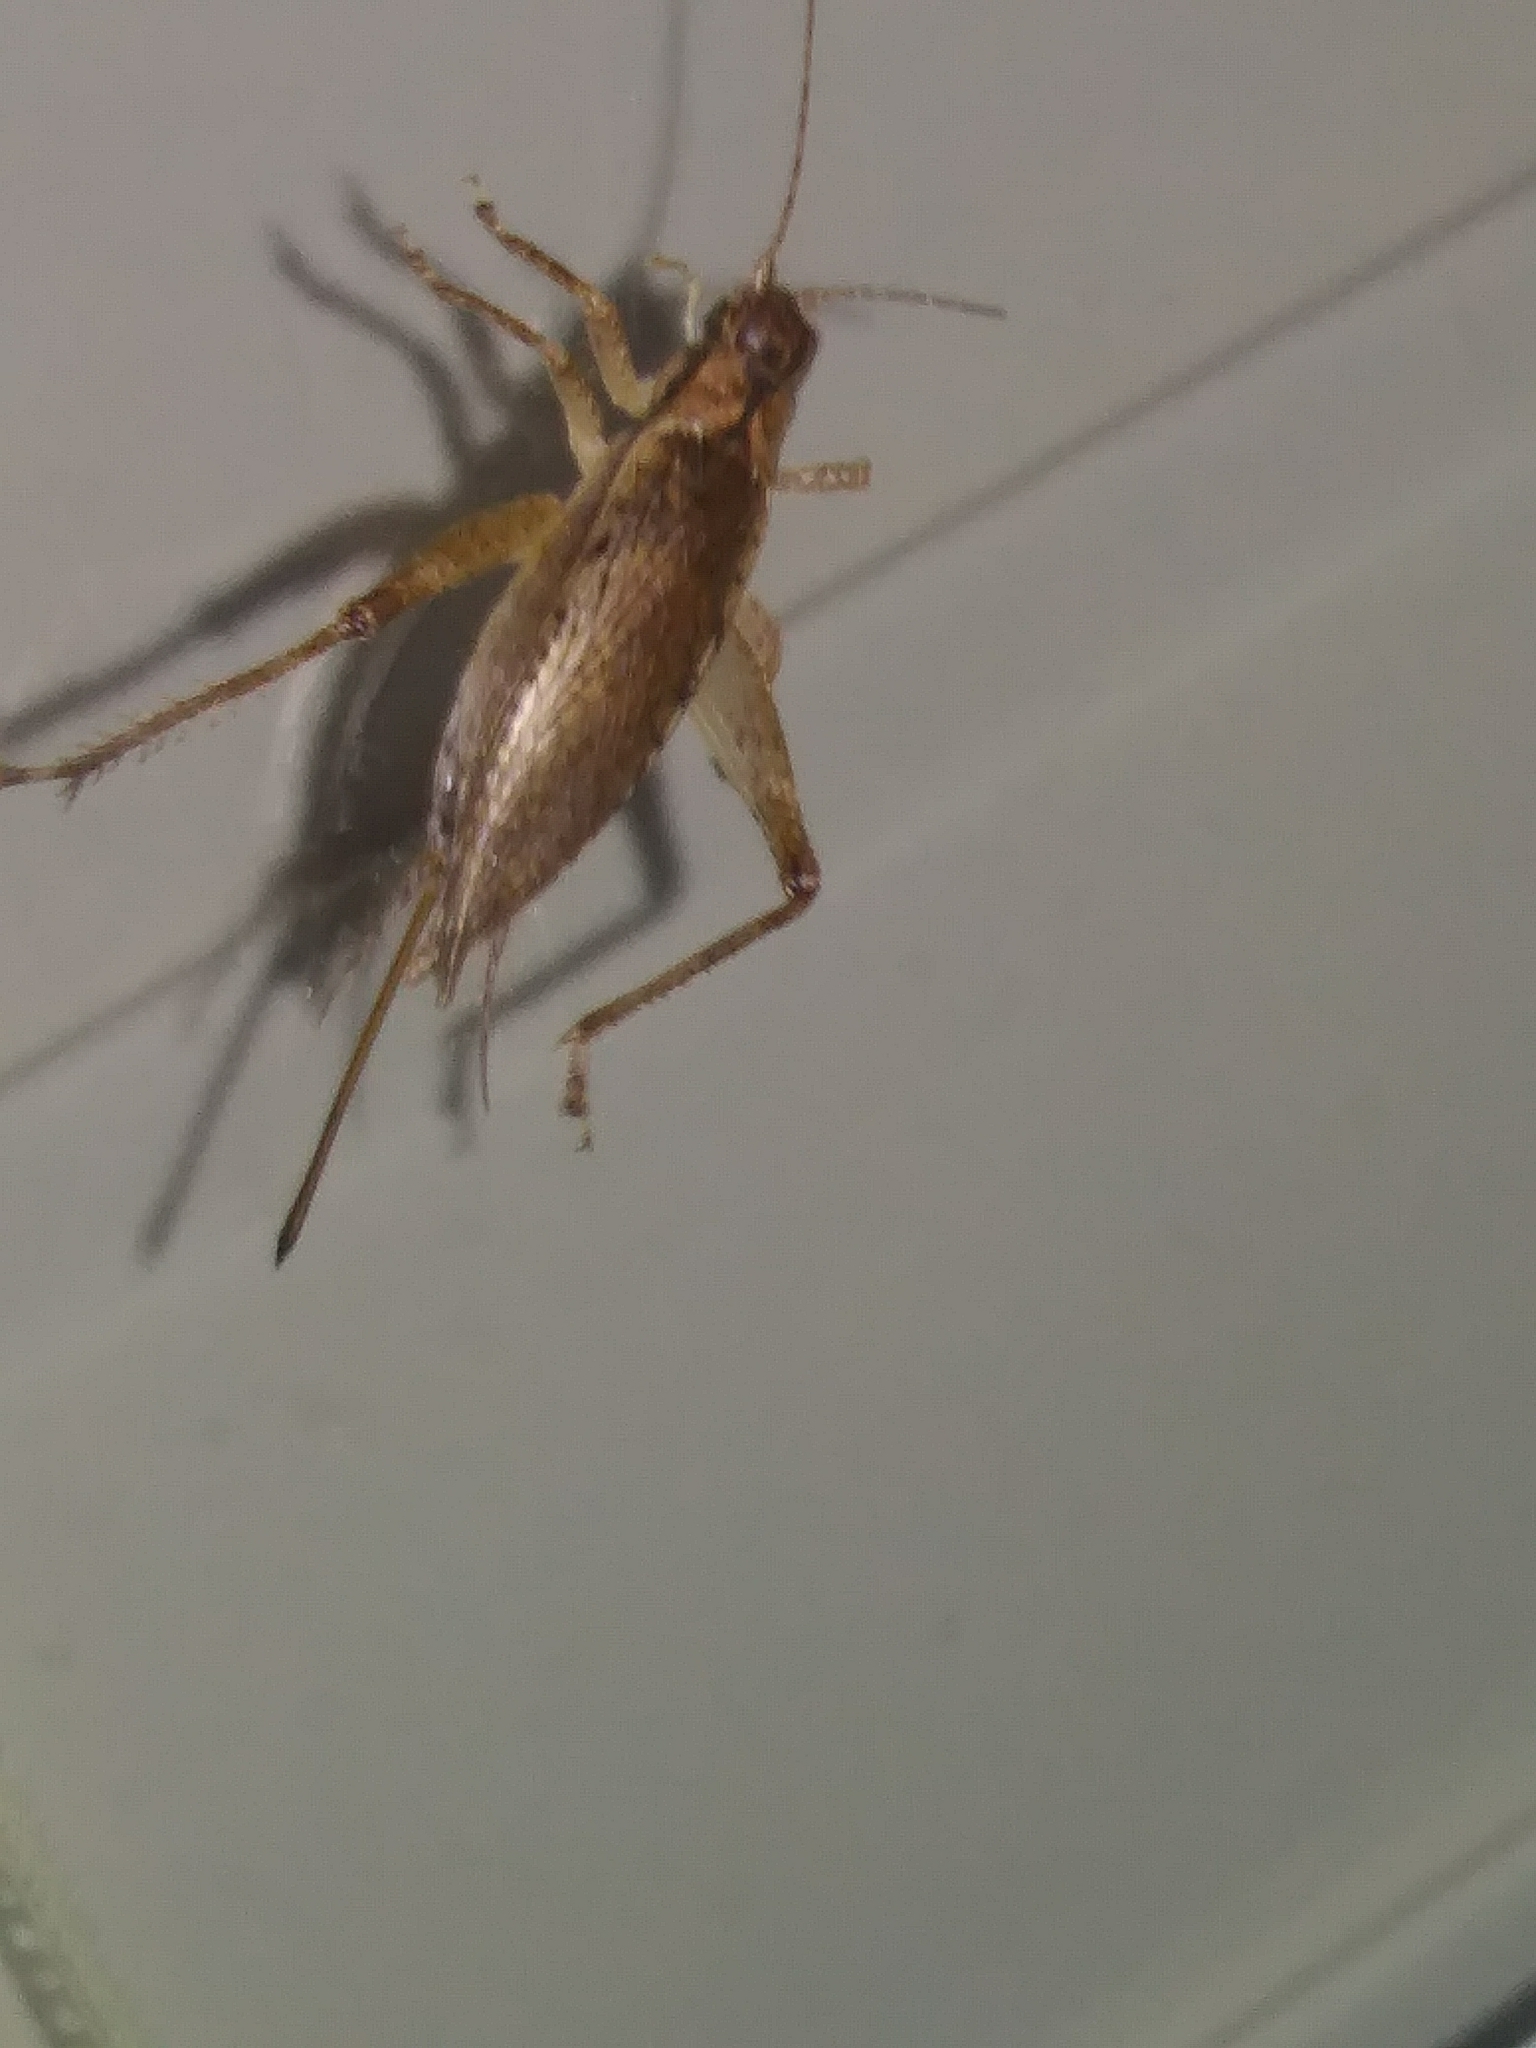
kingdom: Animalia
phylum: Arthropoda
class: Insecta
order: Orthoptera
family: Gryllidae
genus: Hapithus
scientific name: Hapithus saltator
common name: Jumping bush cricket
